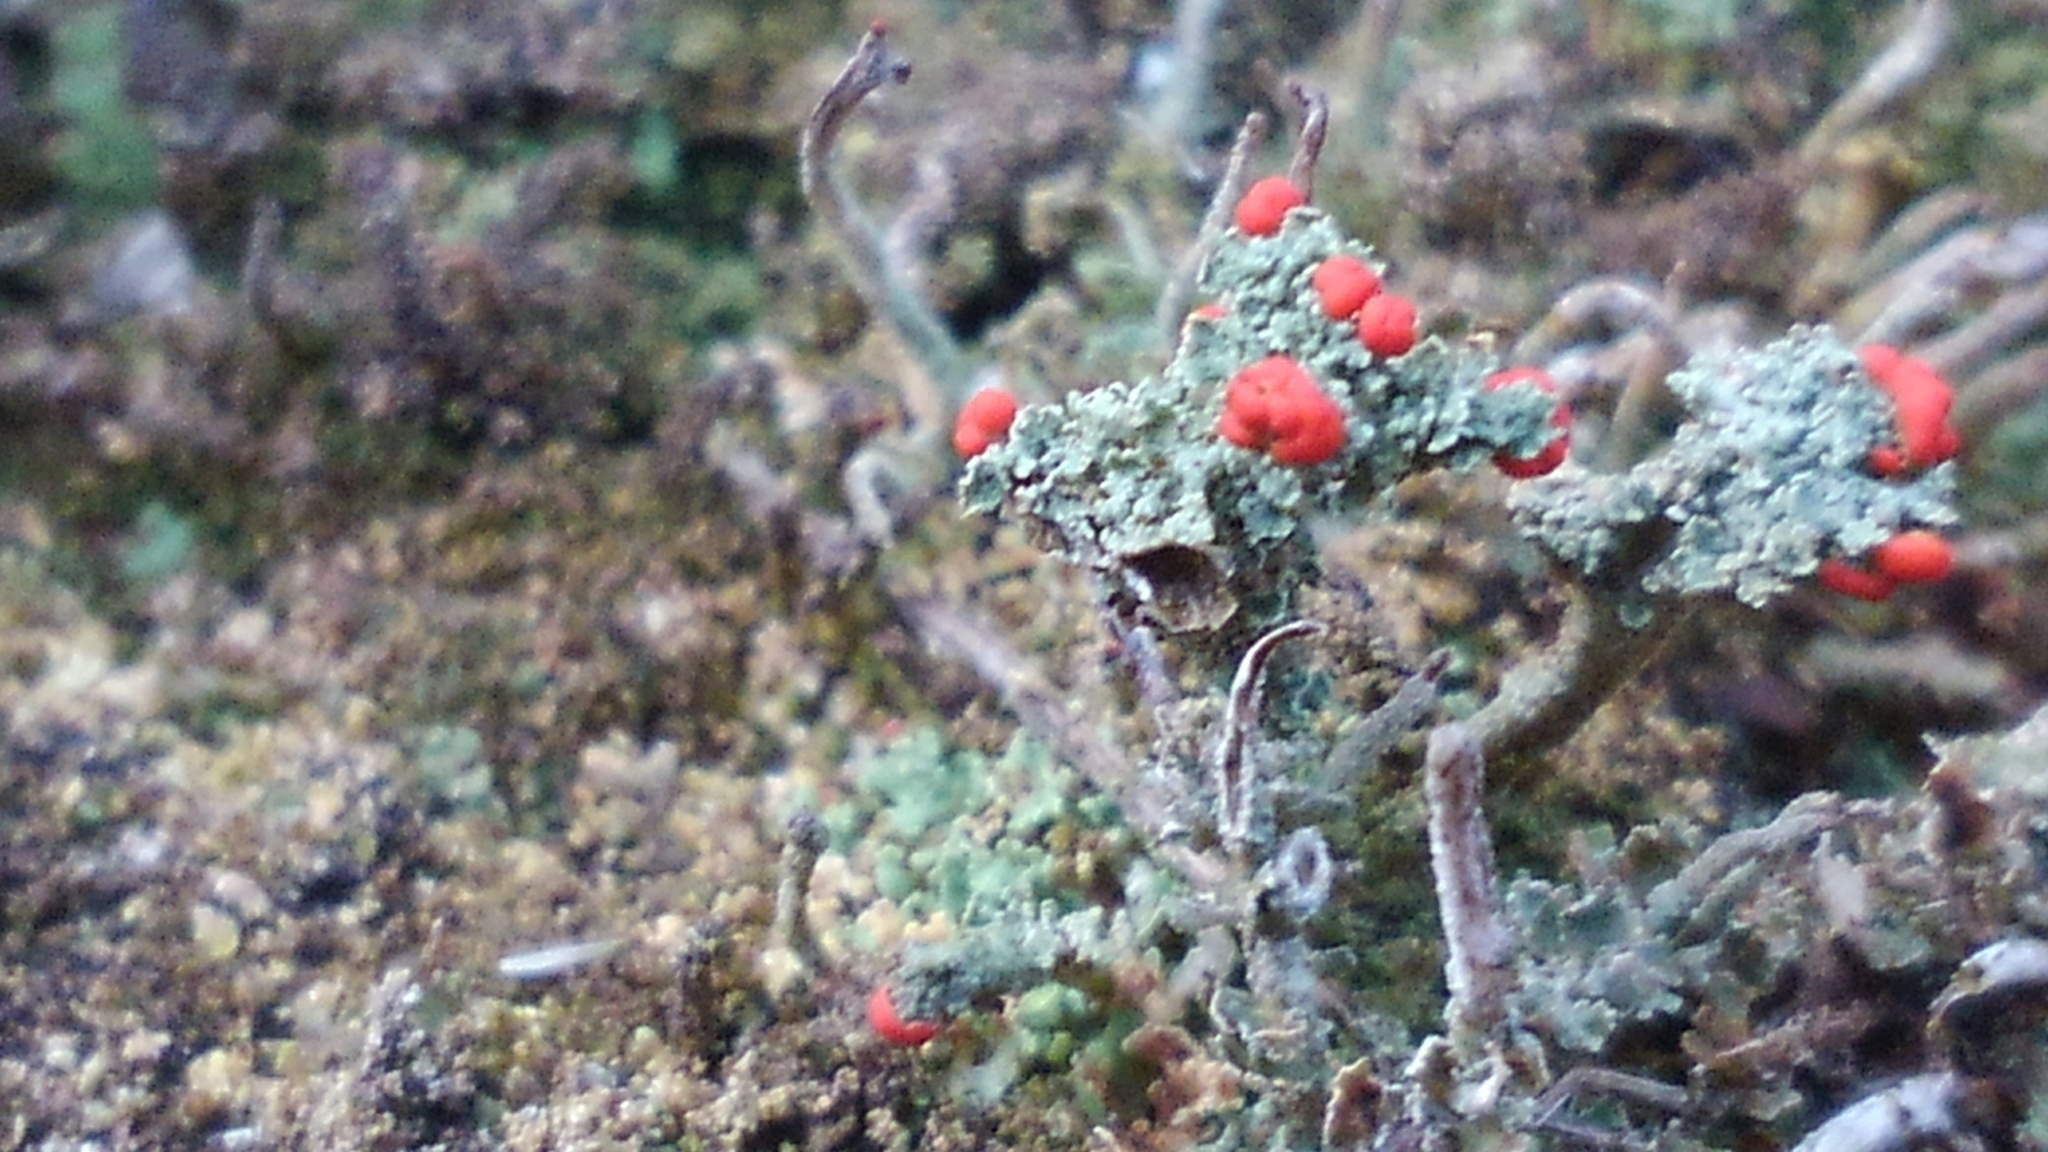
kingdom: Fungi
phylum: Ascomycota
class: Lecanoromycetes
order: Lecanorales
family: Cladoniaceae
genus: Cladonia
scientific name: Cladonia cristatella
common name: British soldier lichen
